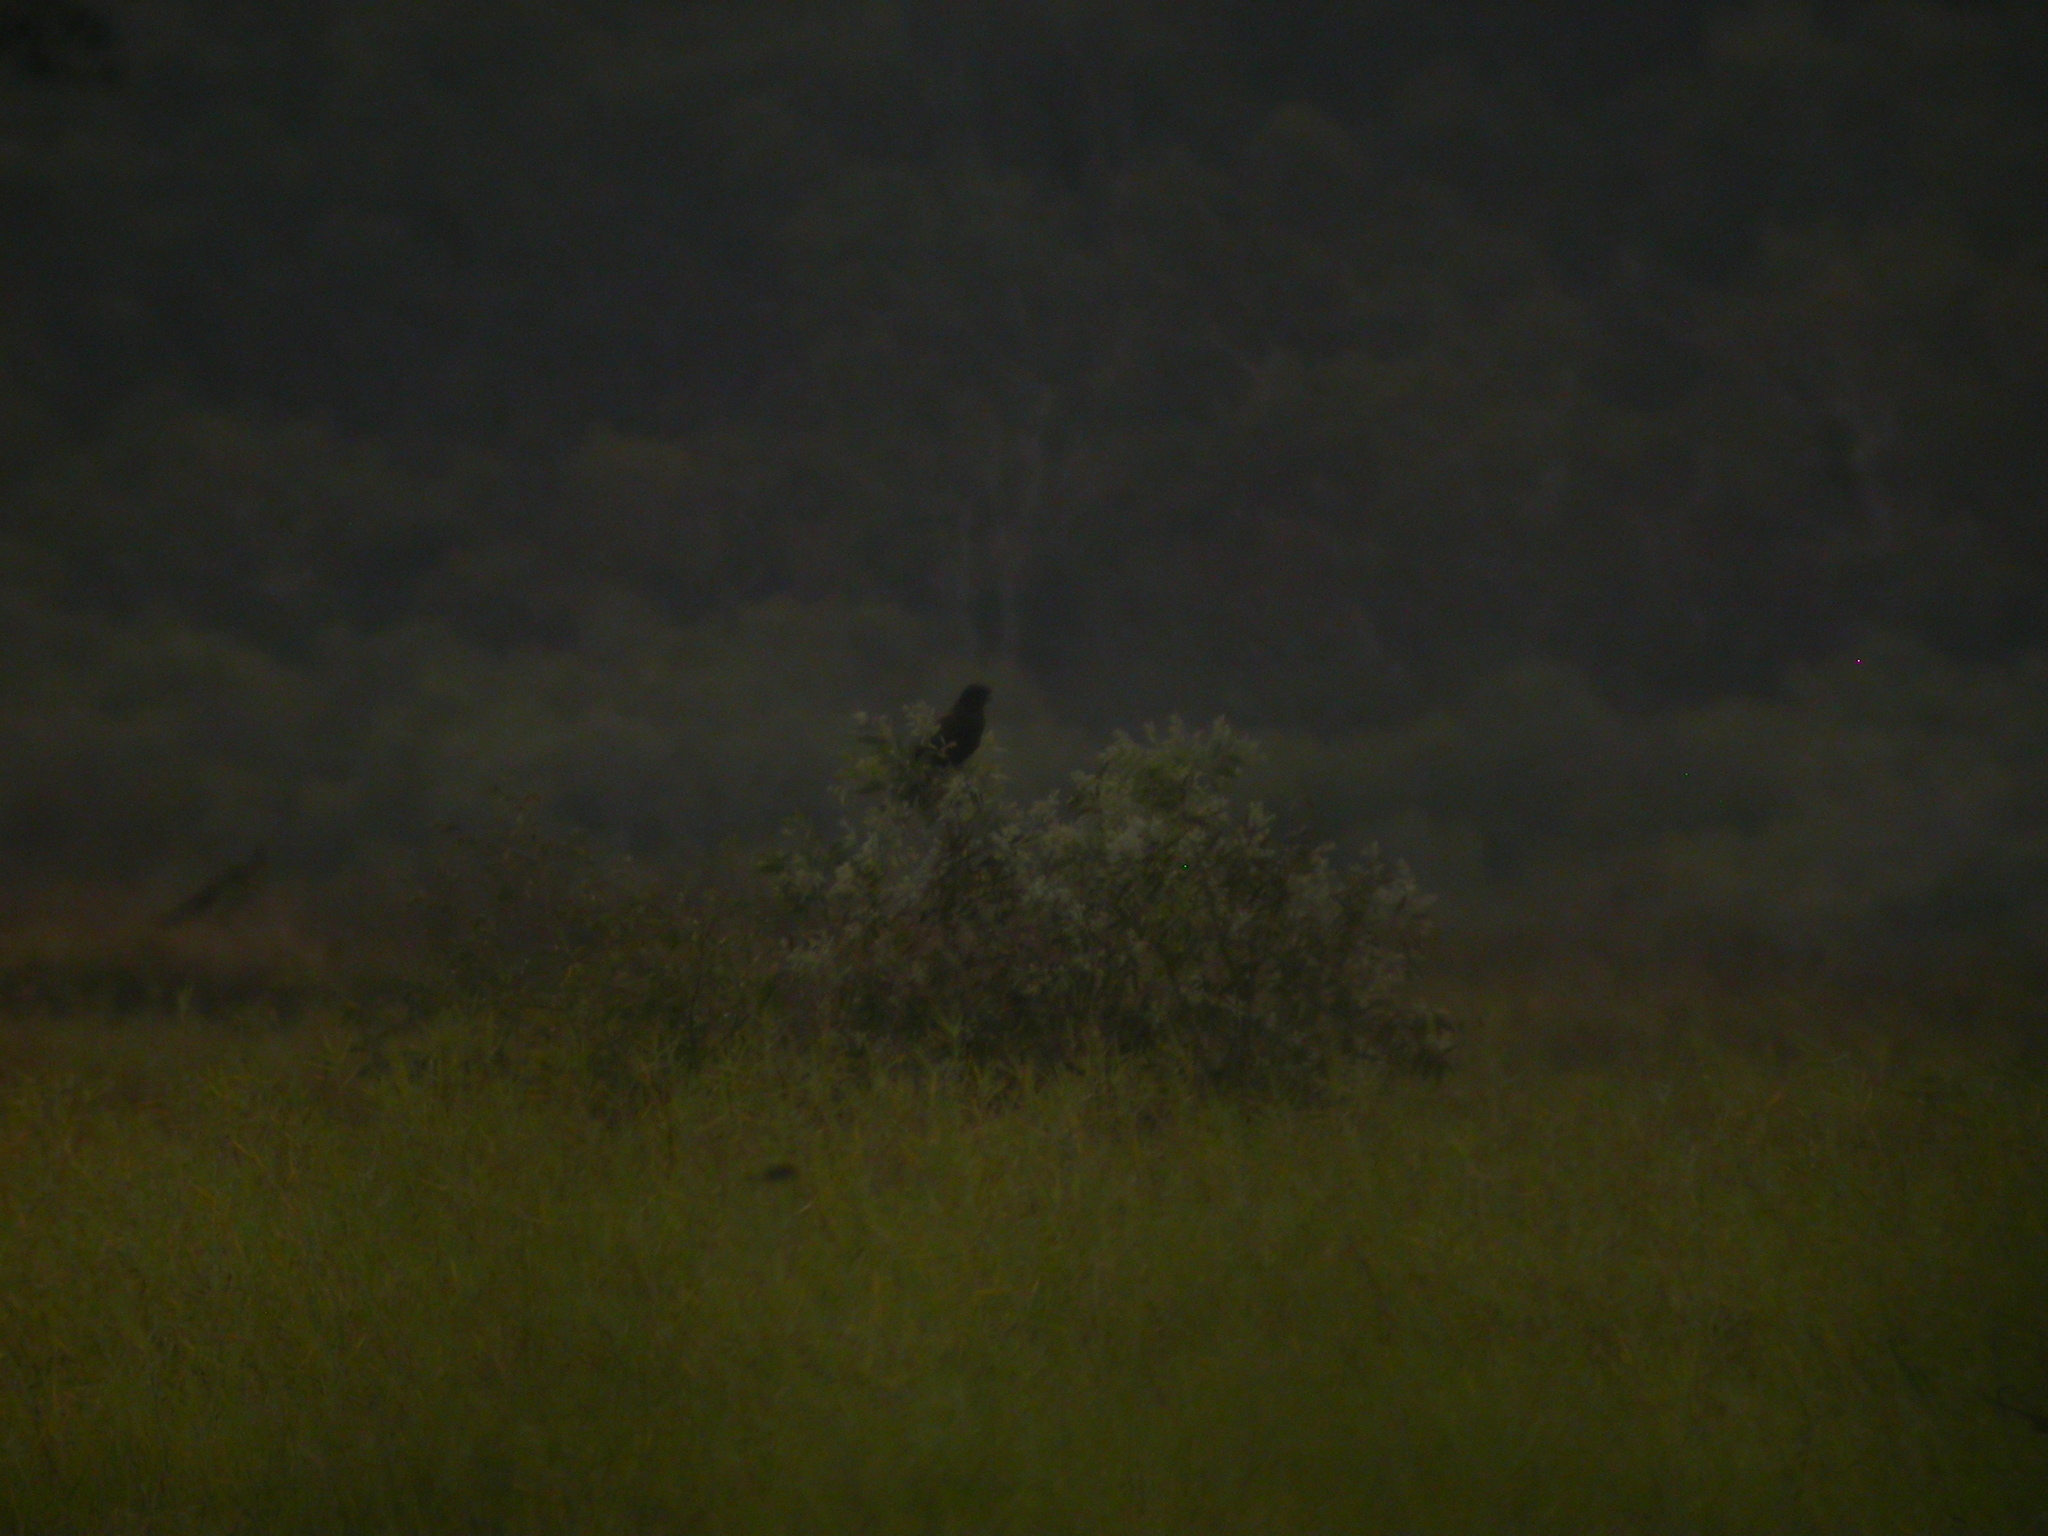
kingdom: Animalia
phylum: Chordata
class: Aves
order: Falconiformes
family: Falconidae
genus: Falco
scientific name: Falco
